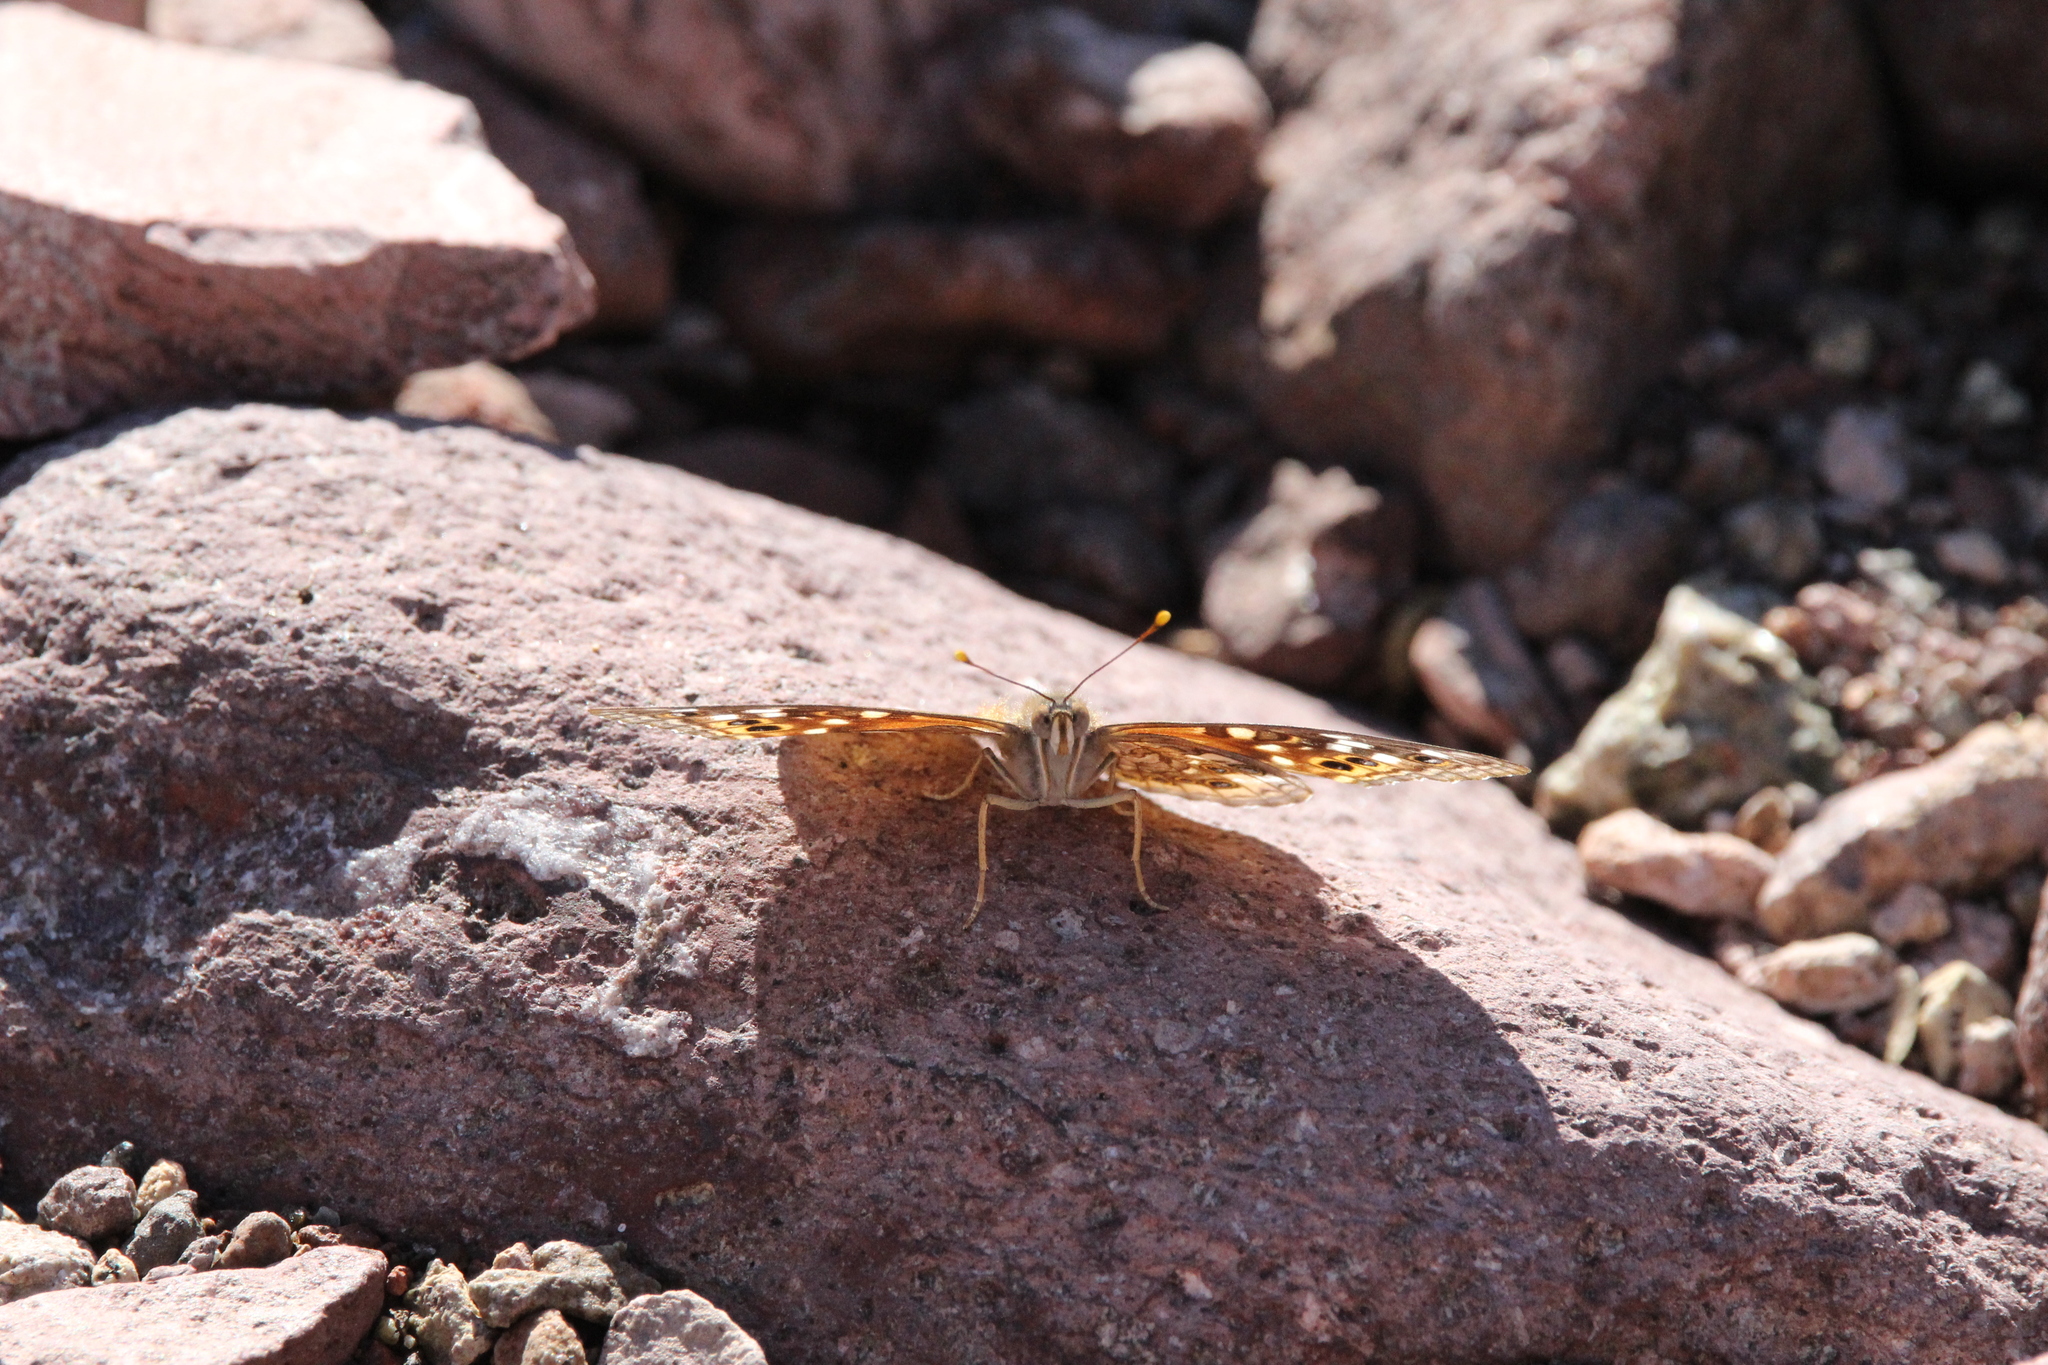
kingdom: Animalia
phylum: Arthropoda
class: Insecta
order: Lepidoptera
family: Nymphalidae
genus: Asterocampa
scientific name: Asterocampa leilia
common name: Empress leilia
